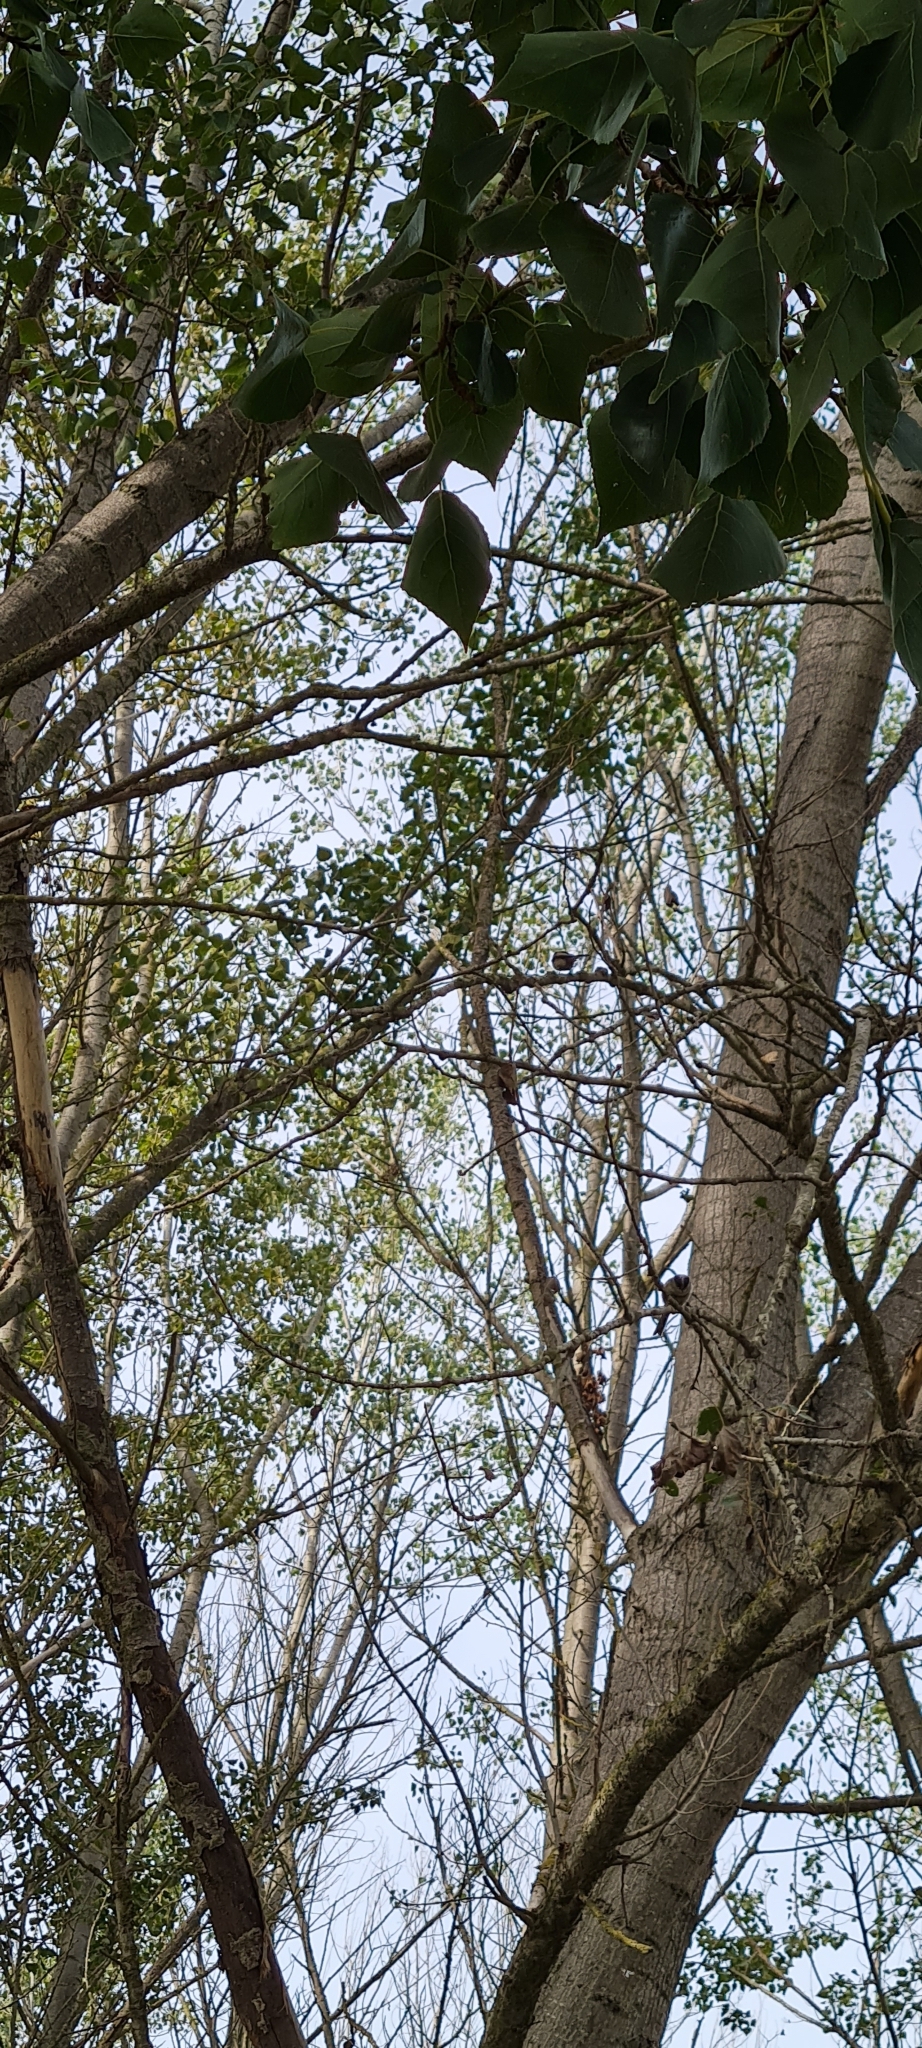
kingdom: Animalia
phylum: Chordata
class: Aves
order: Passeriformes
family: Aegithalidae
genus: Aegithalos
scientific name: Aegithalos caudatus
